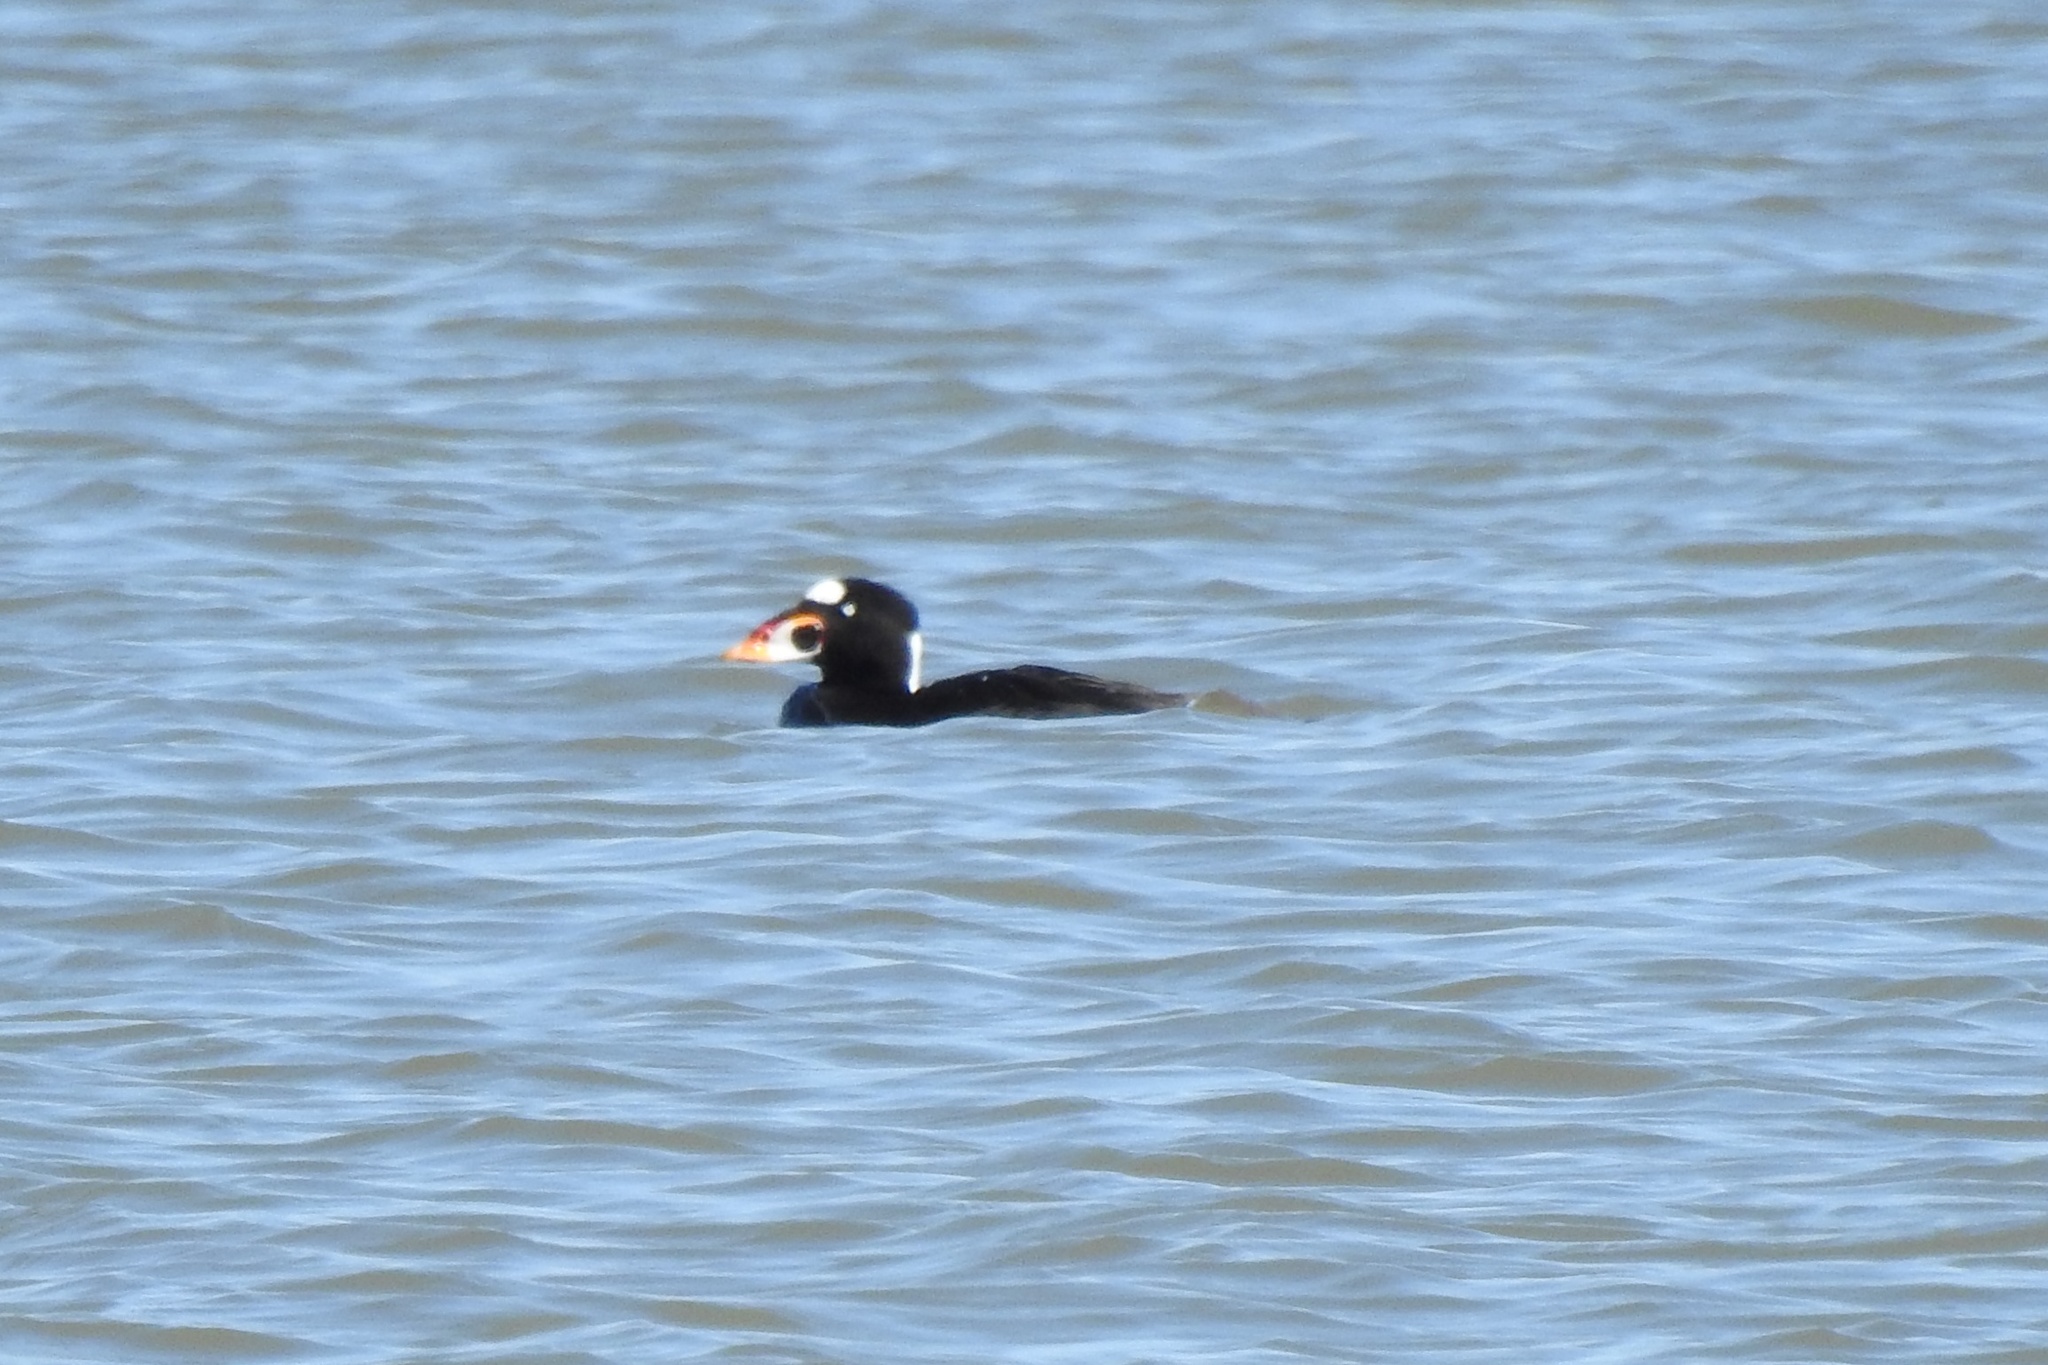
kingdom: Animalia
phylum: Chordata
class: Aves
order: Anseriformes
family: Anatidae
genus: Melanitta
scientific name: Melanitta perspicillata
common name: Surf scoter
